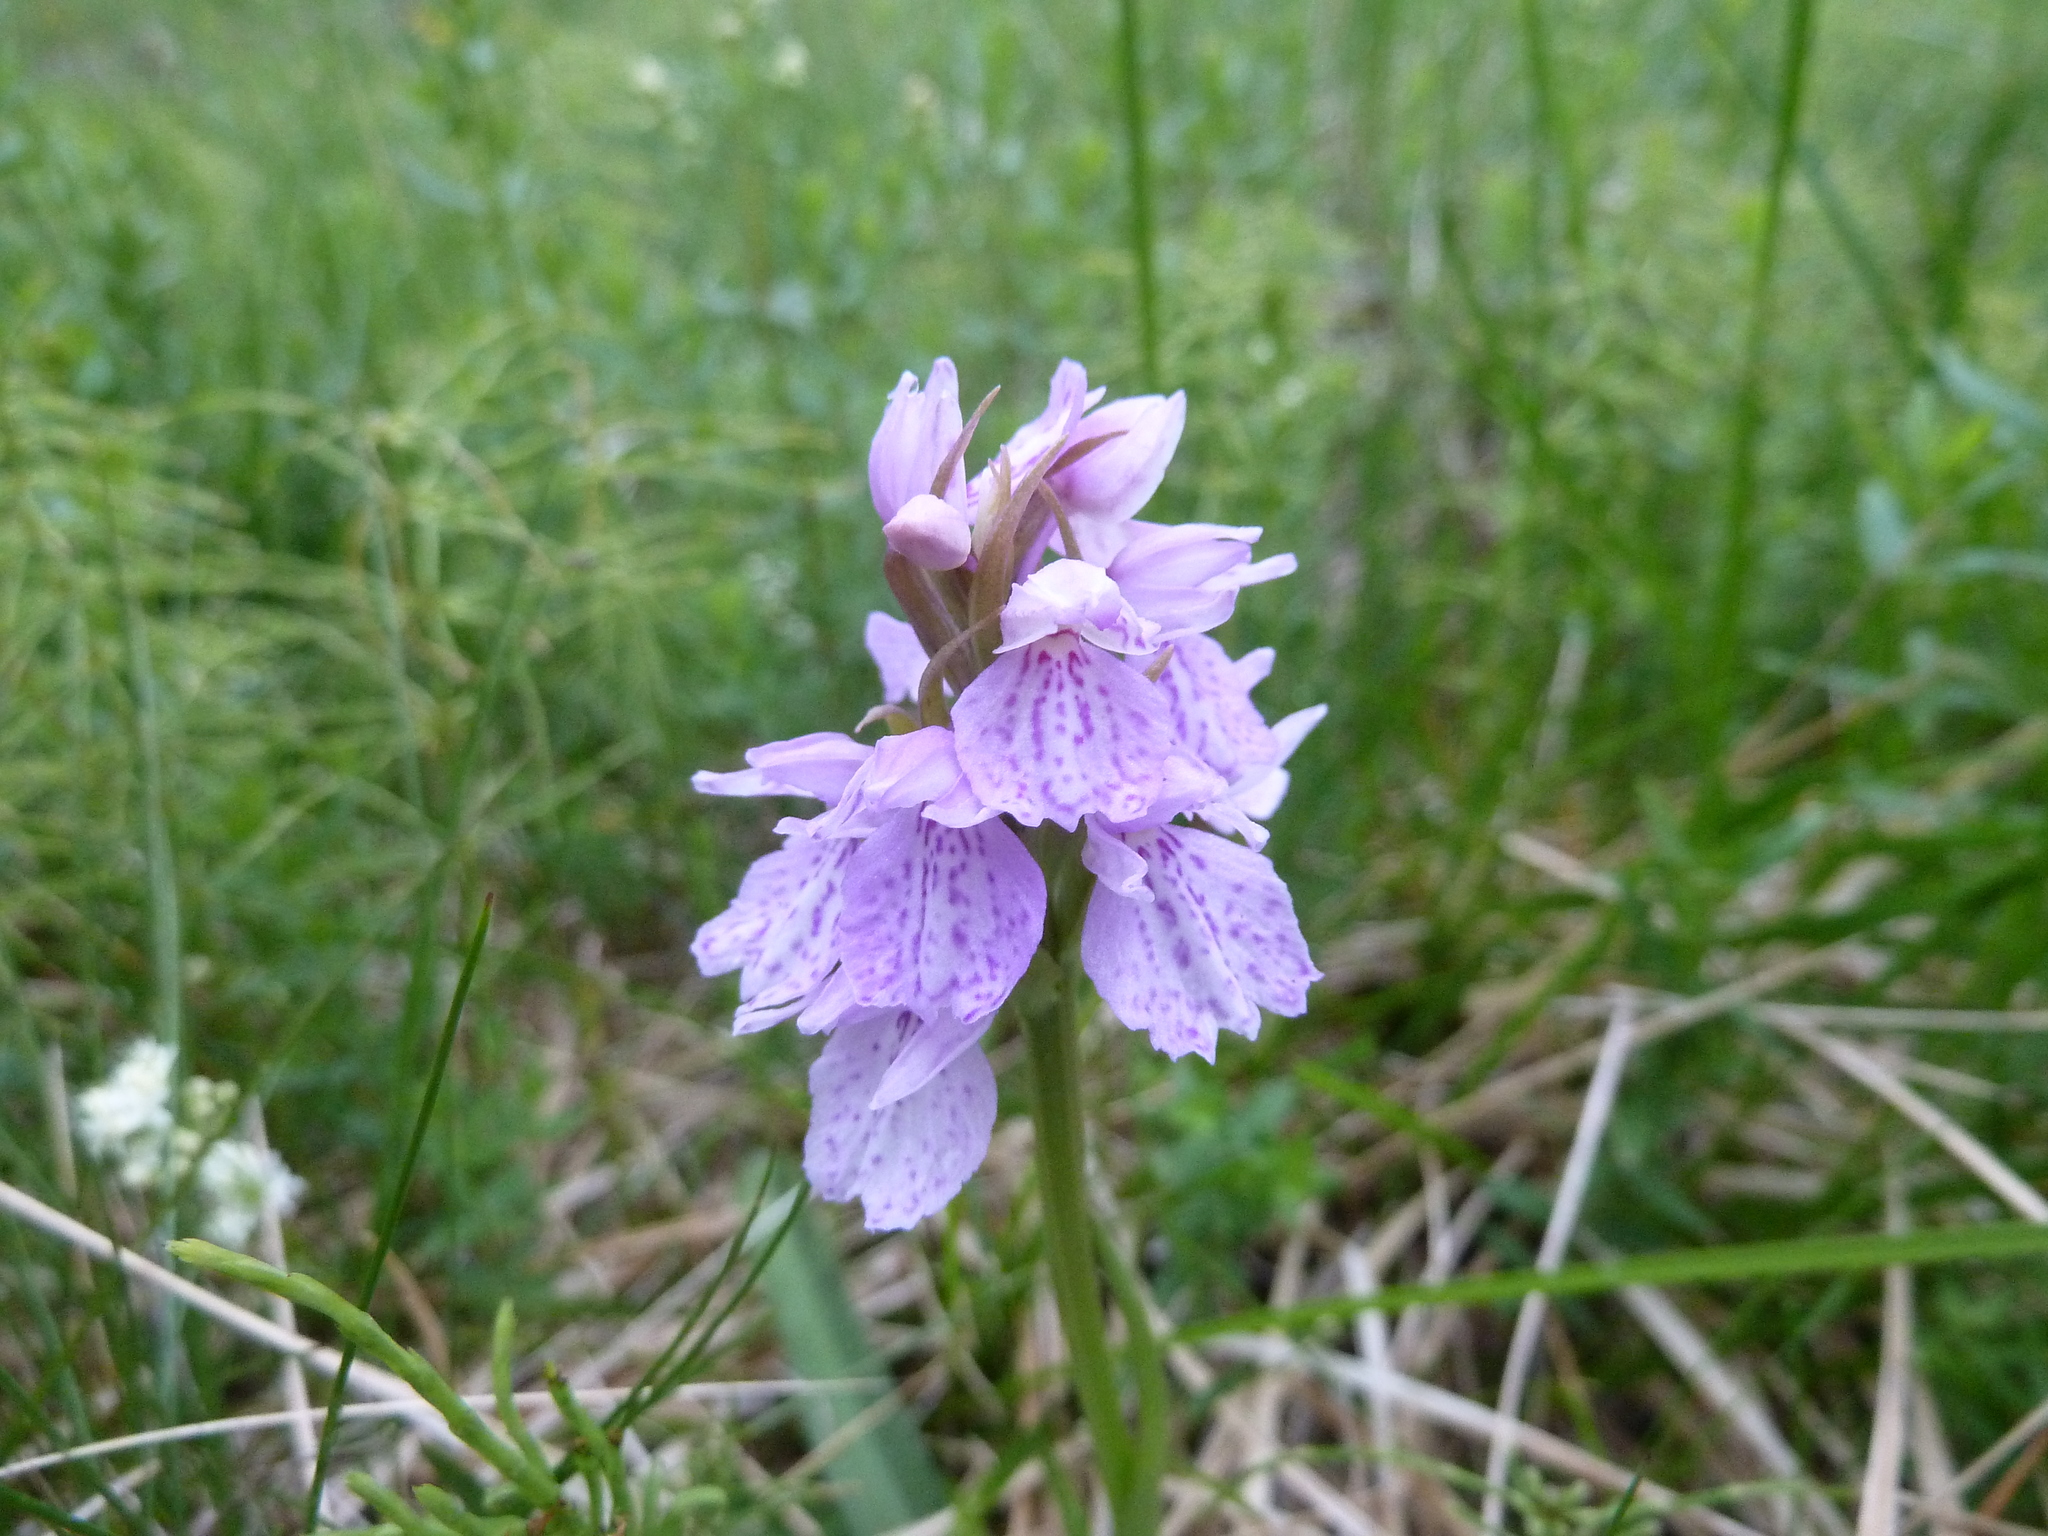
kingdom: Plantae
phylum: Tracheophyta
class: Liliopsida
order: Asparagales
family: Orchidaceae
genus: Dactylorhiza
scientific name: Dactylorhiza maculata
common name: Heath spotted-orchid
